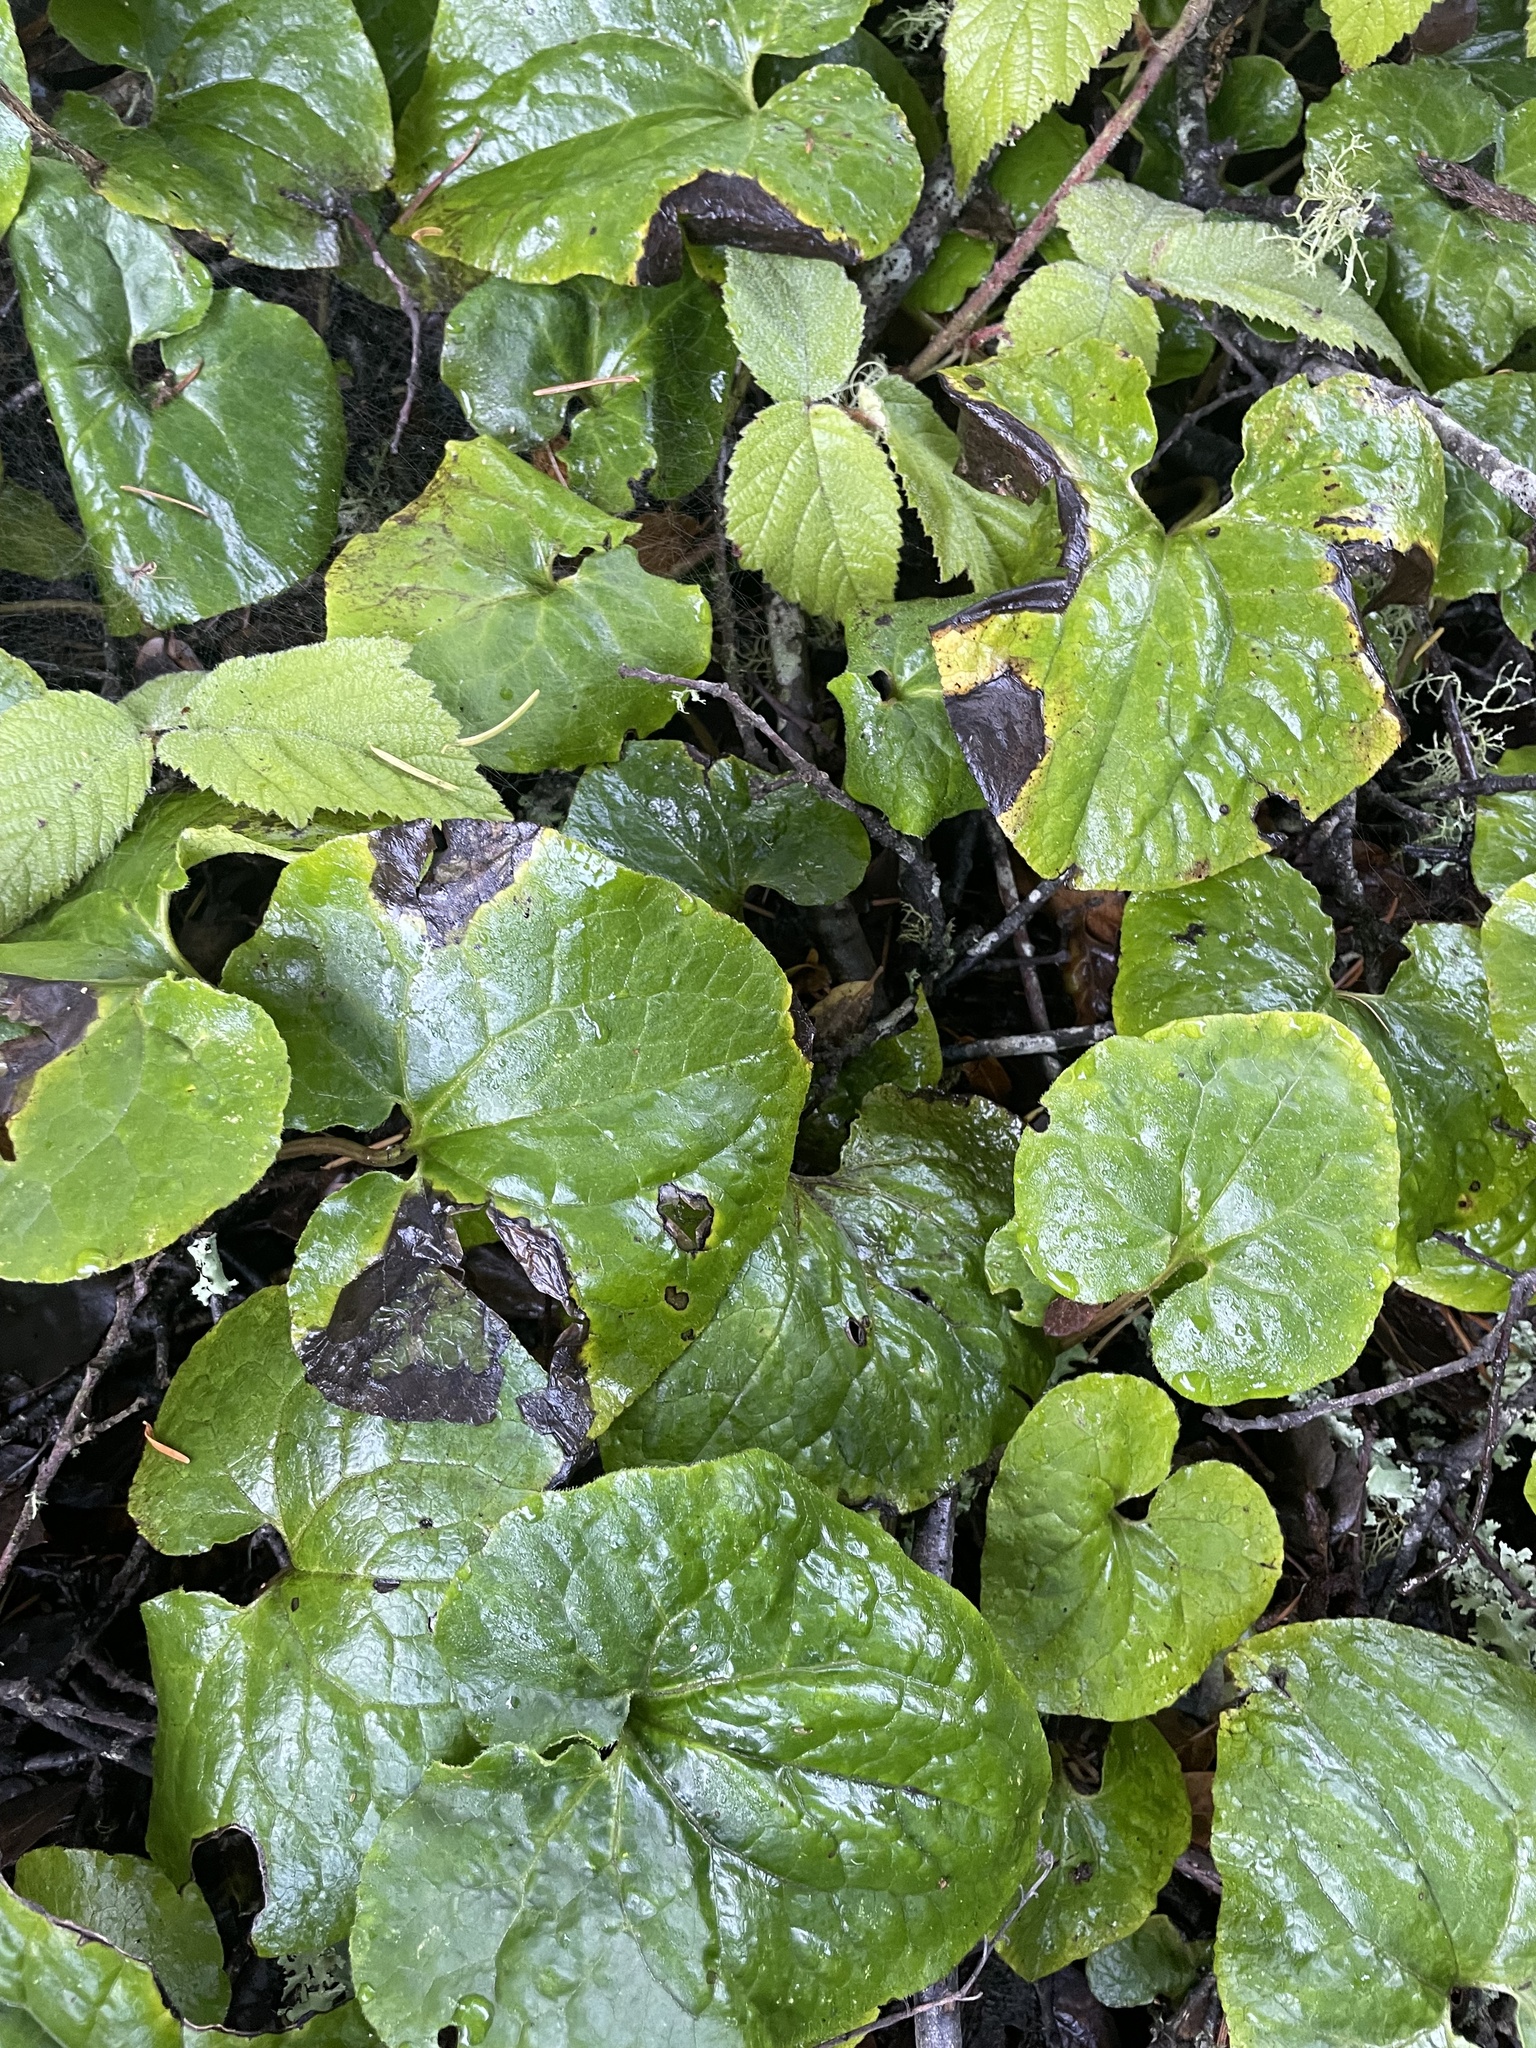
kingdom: Plantae
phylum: Tracheophyta
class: Magnoliopsida
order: Piperales
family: Aristolochiaceae
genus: Asarum
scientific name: Asarum caudatum
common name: Wild ginger
